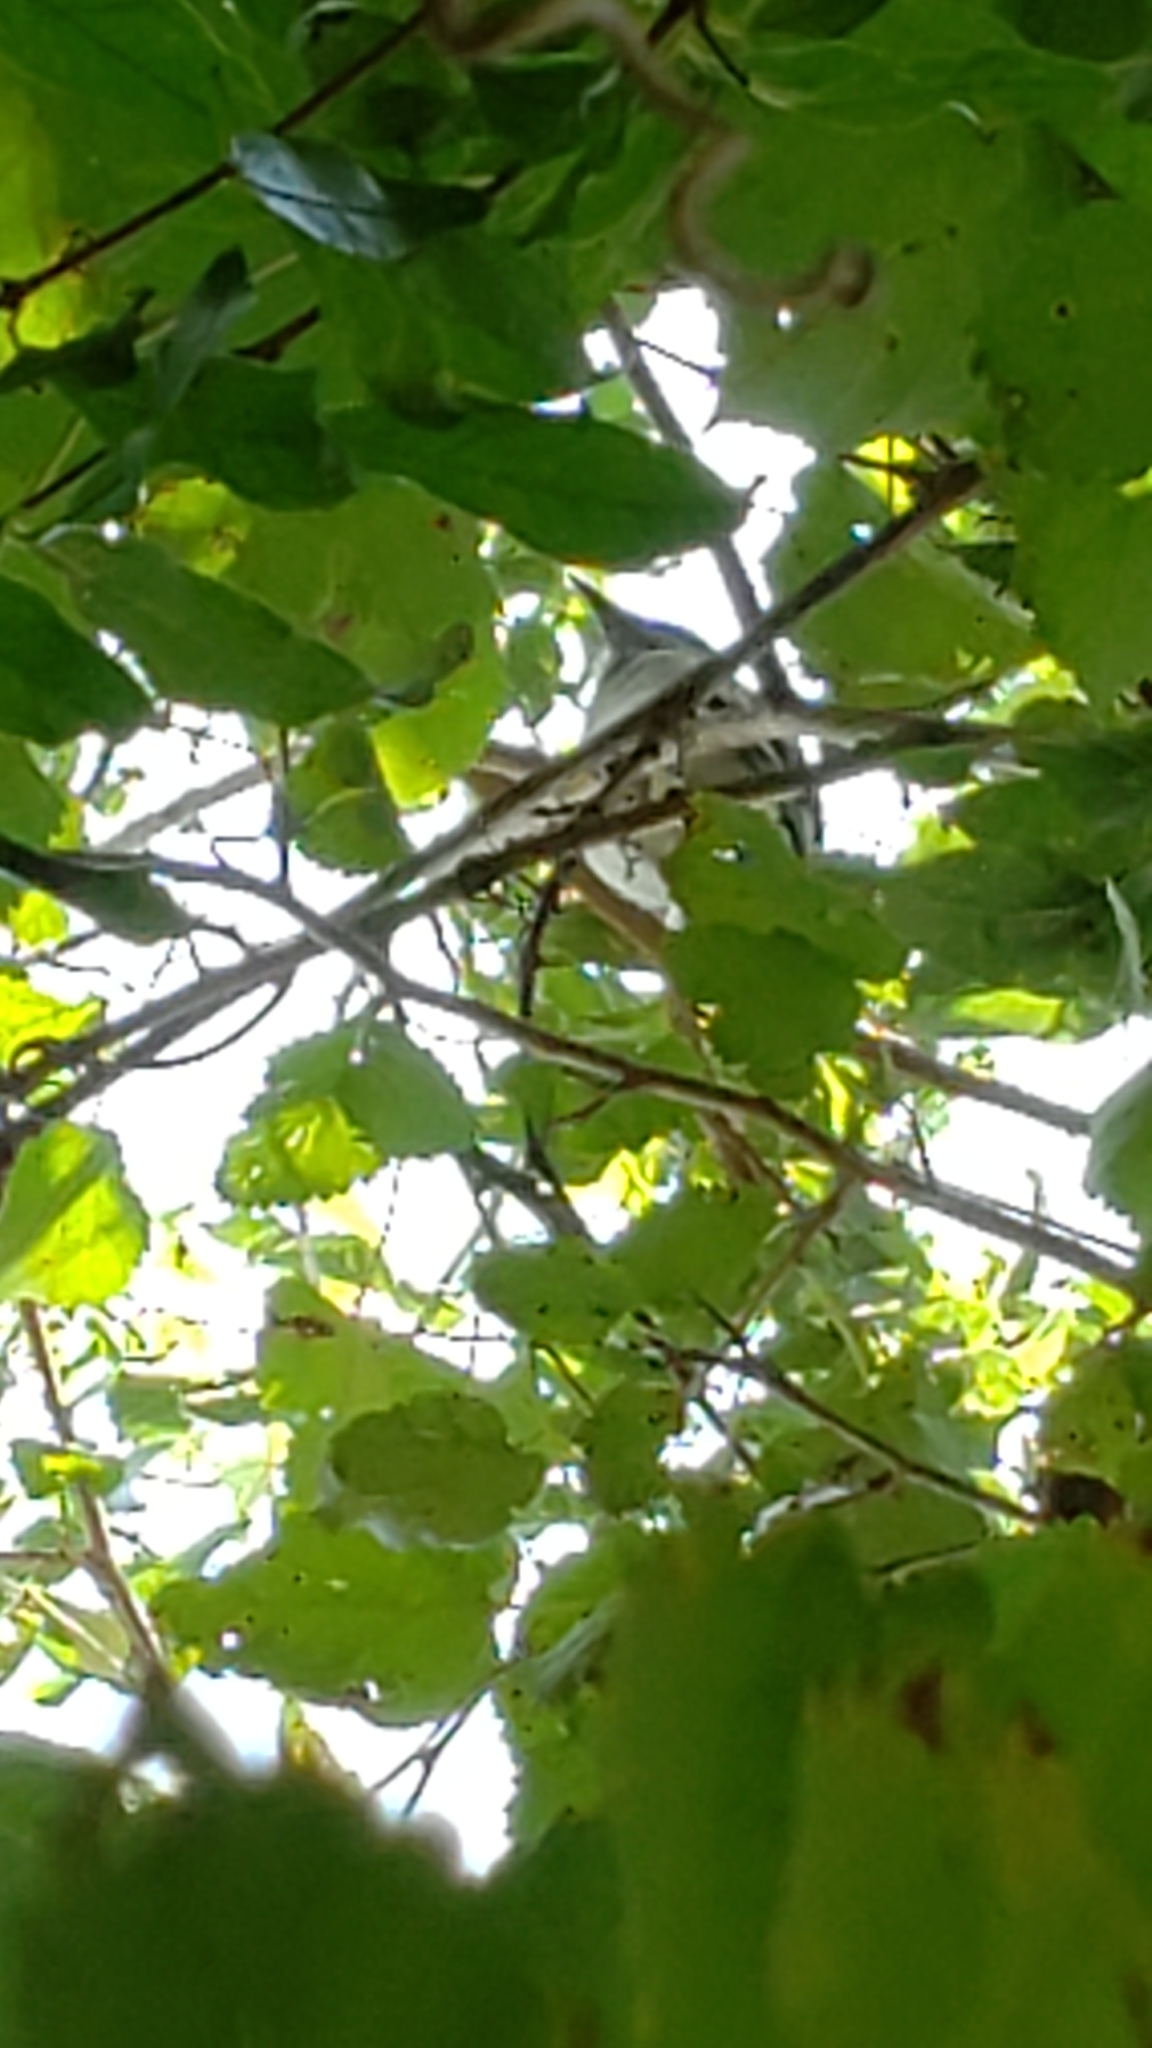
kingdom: Animalia
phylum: Chordata
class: Aves
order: Passeriformes
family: Corvidae
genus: Cyanocitta
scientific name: Cyanocitta cristata
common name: Blue jay
